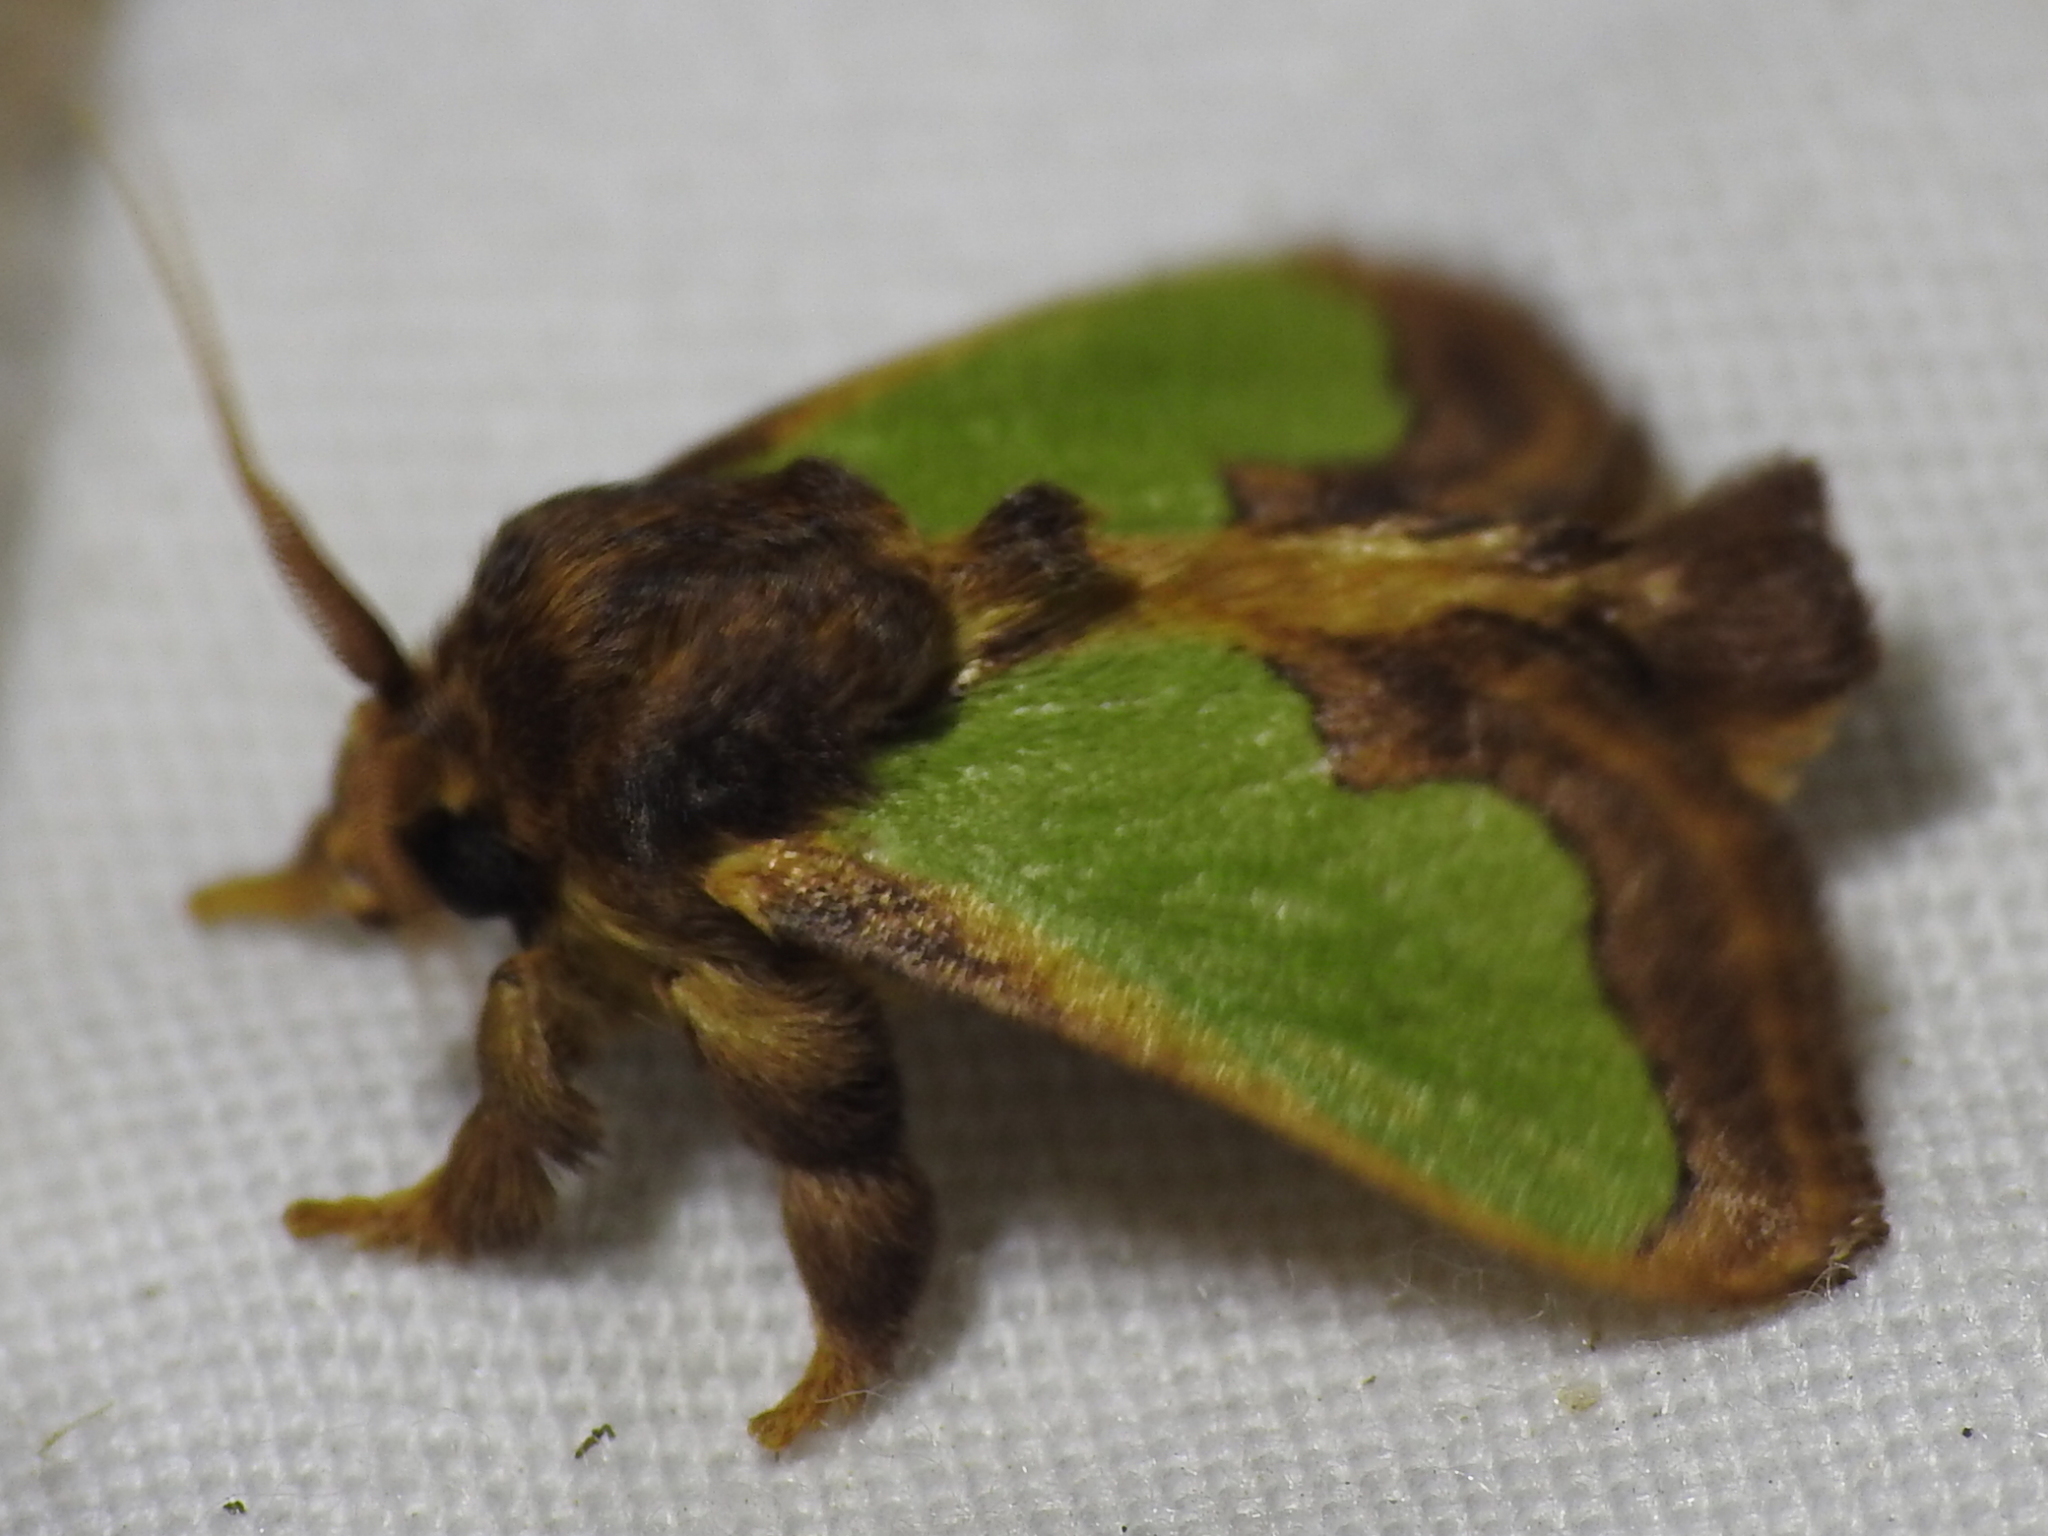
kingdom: Animalia
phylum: Arthropoda
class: Insecta
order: Lepidoptera
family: Limacodidae
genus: Euclea
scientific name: Euclea incisa
